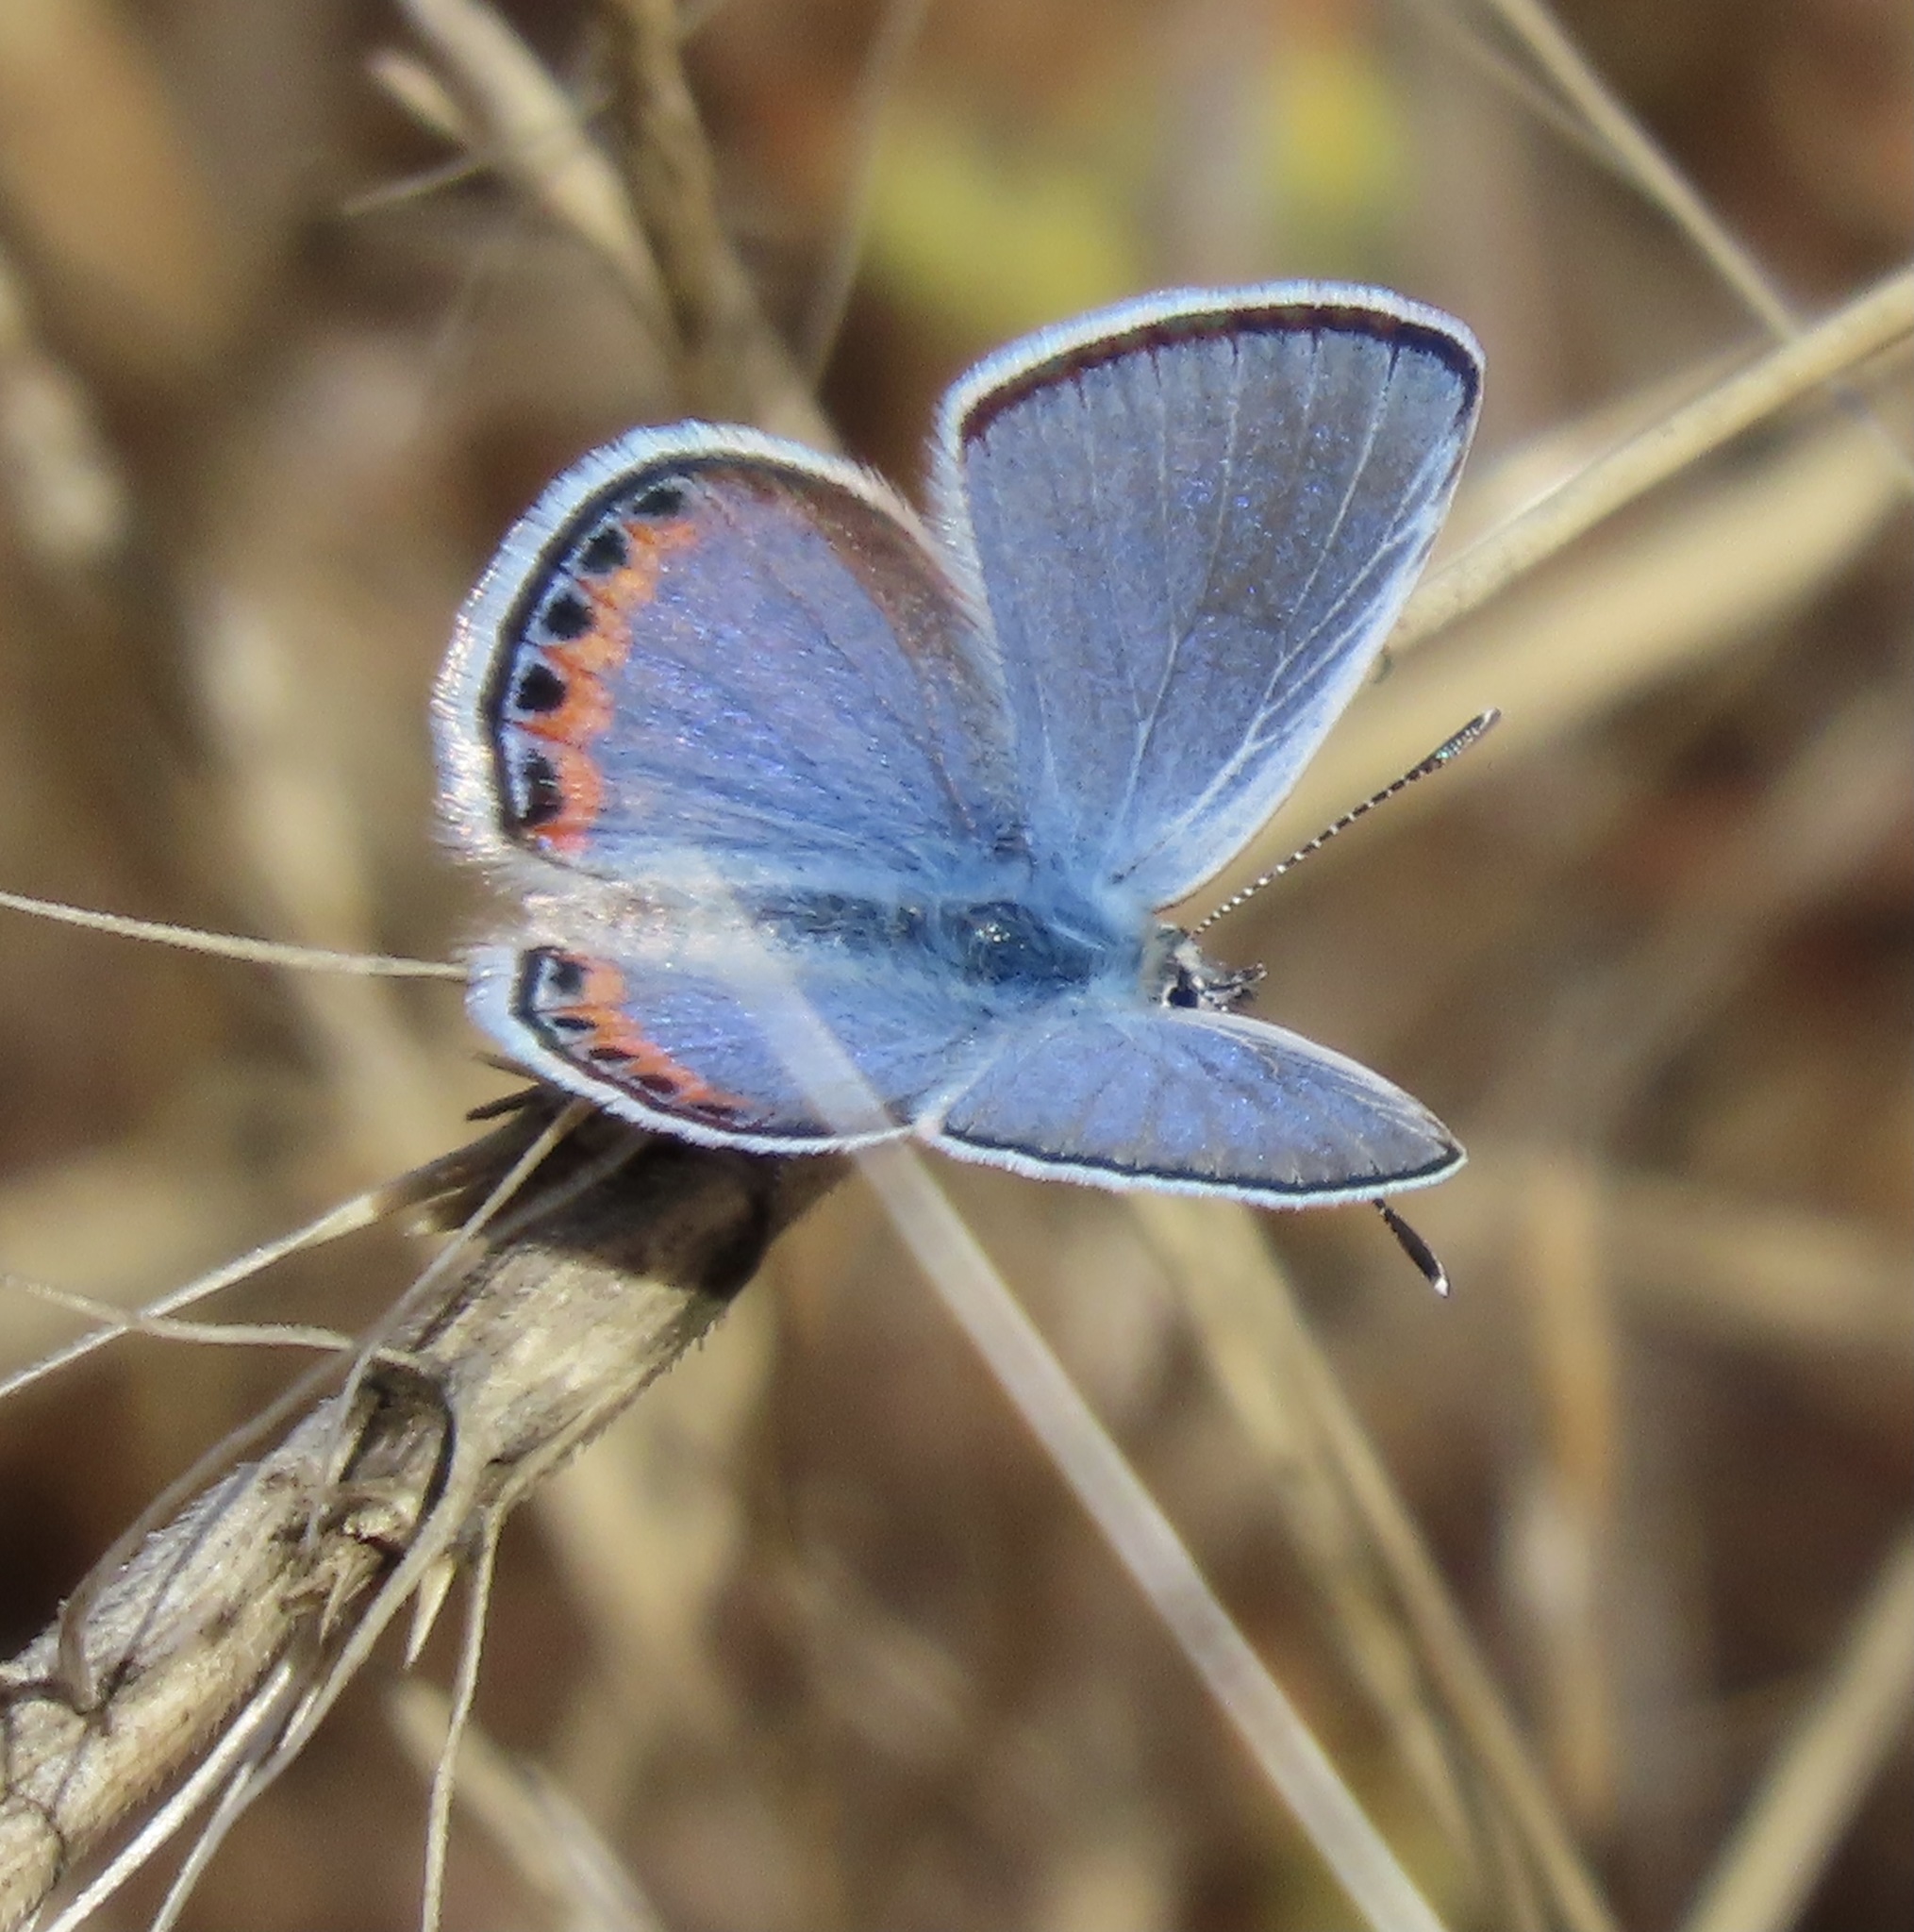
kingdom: Animalia
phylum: Arthropoda
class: Insecta
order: Lepidoptera
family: Lycaenidae
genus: Icaricia
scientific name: Icaricia acmon
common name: Acmon blue
